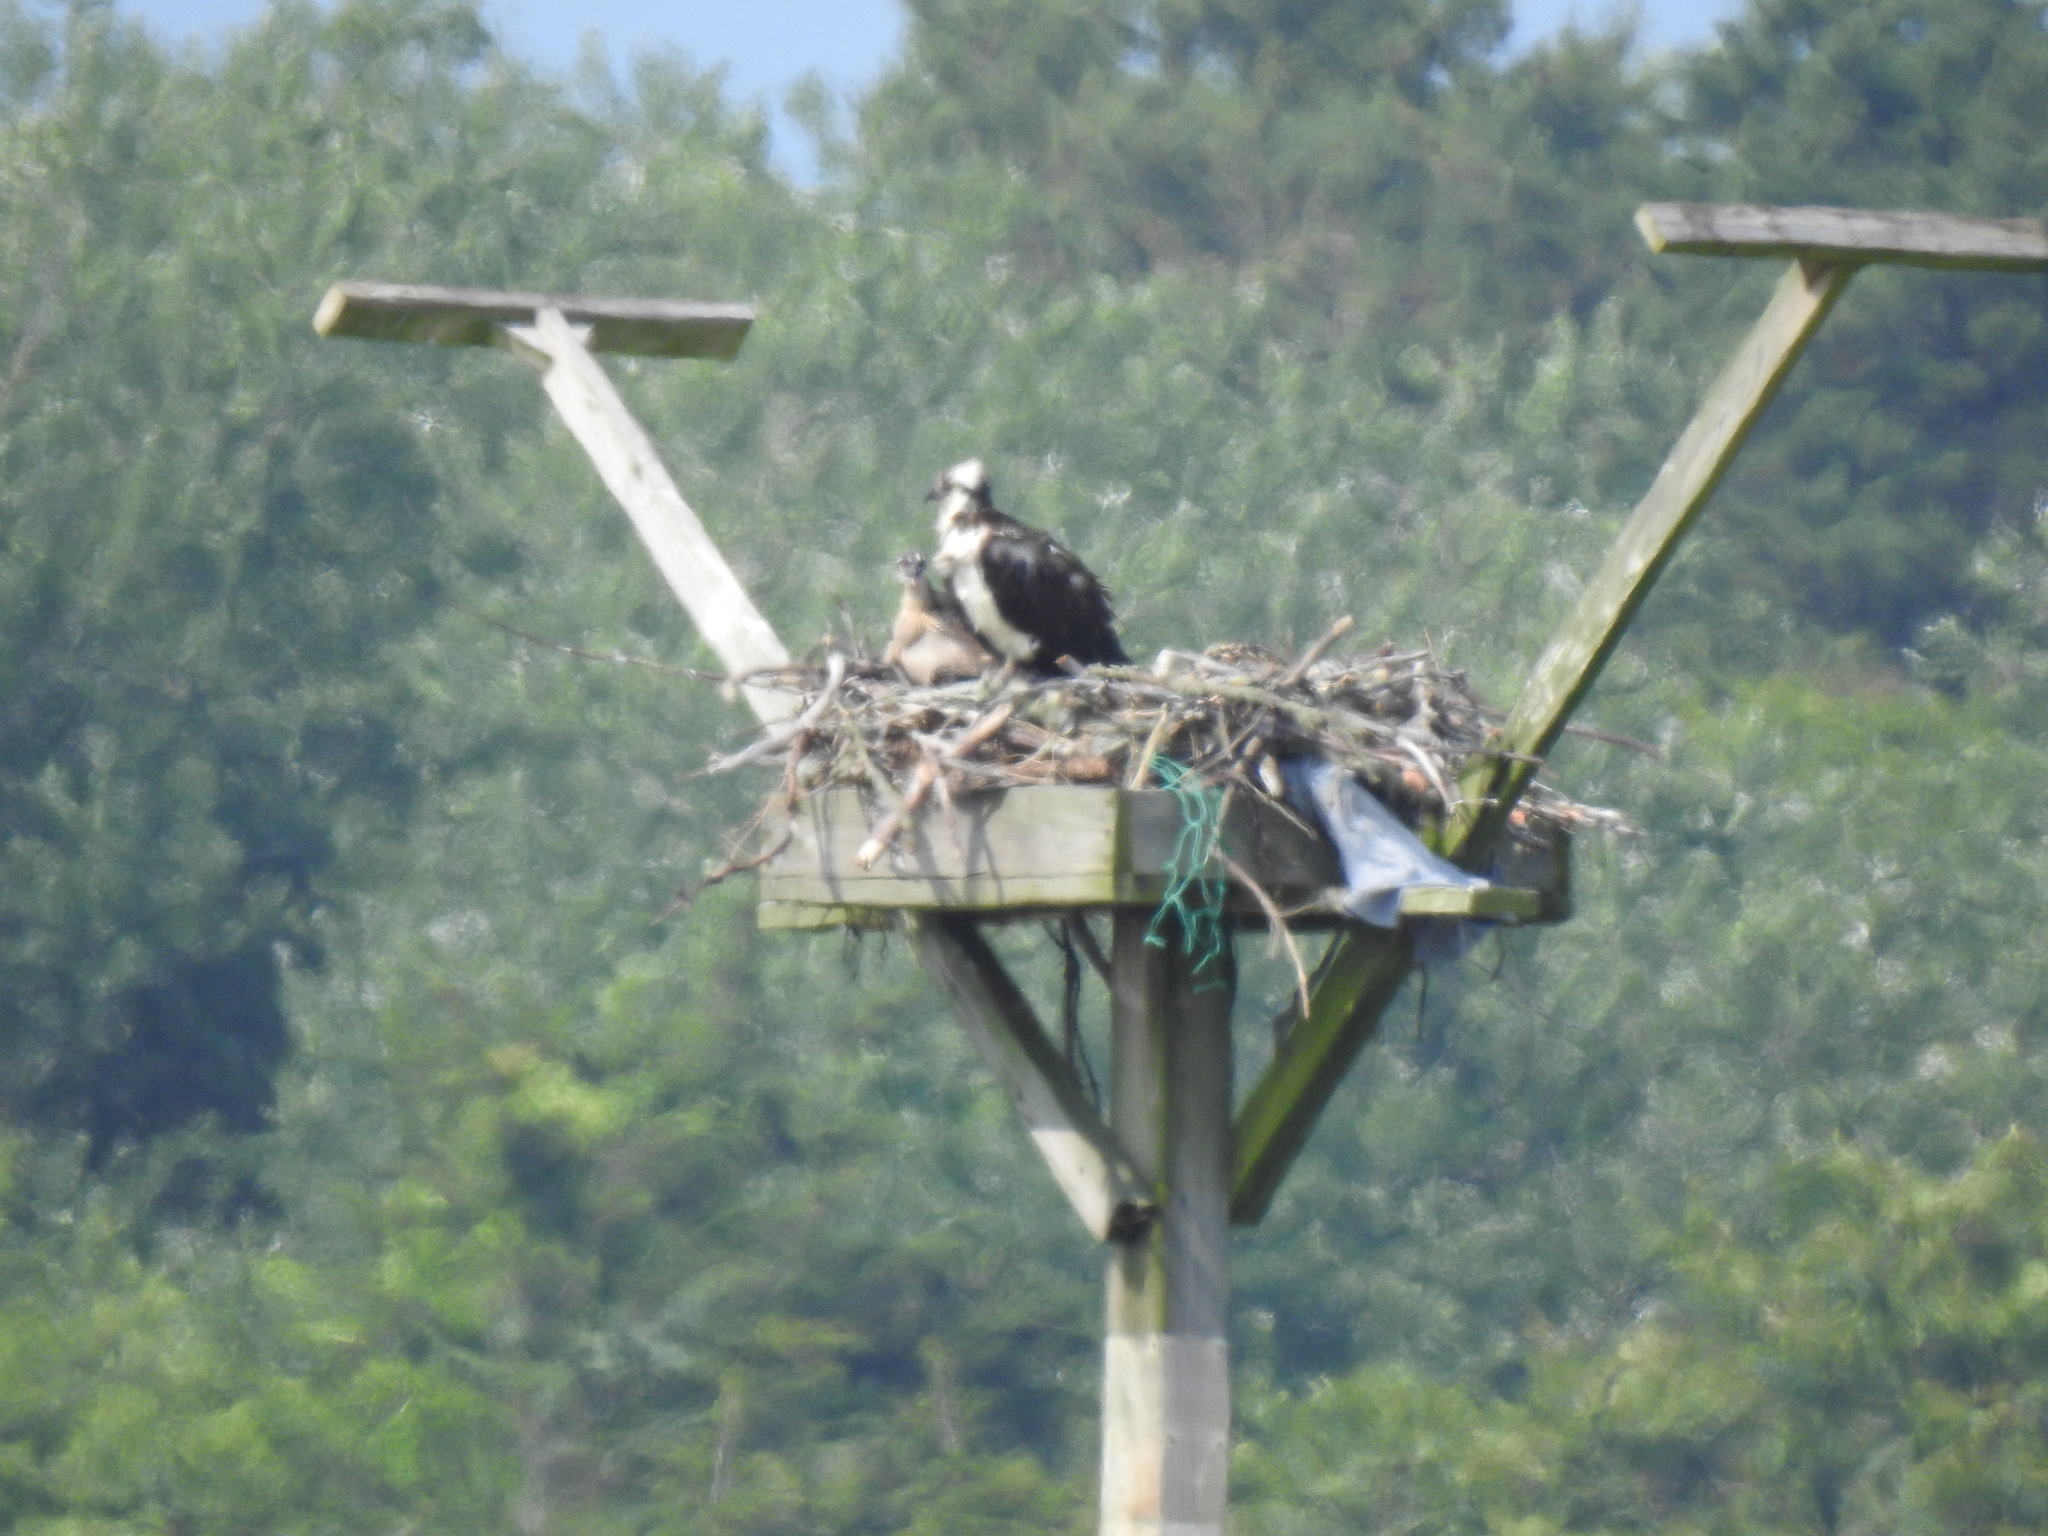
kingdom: Animalia
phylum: Chordata
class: Aves
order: Accipitriformes
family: Pandionidae
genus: Pandion
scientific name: Pandion haliaetus
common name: Osprey
